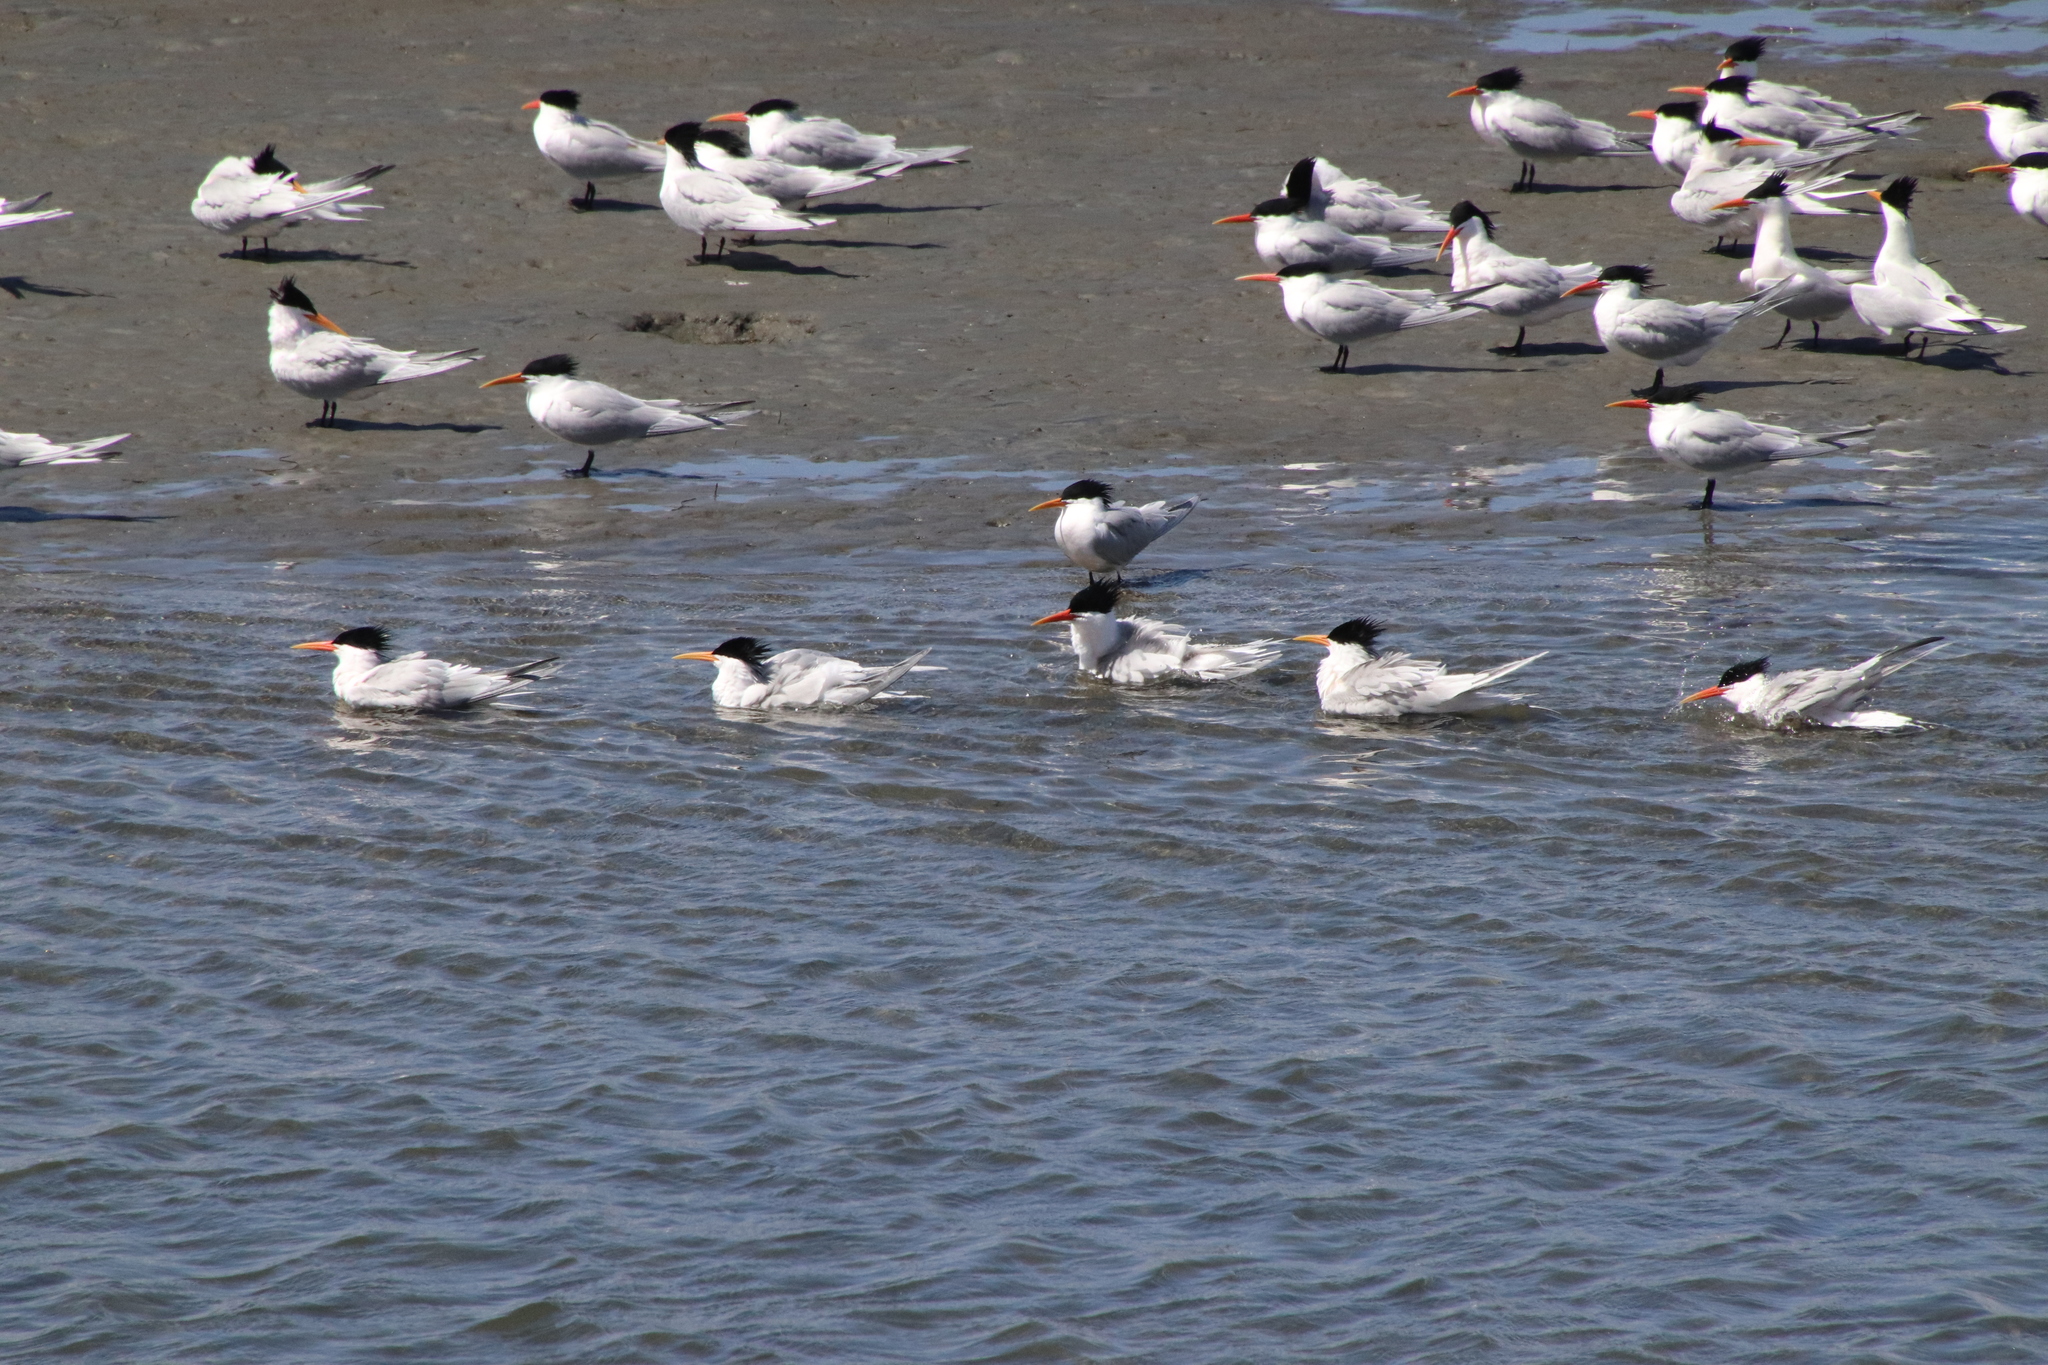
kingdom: Animalia
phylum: Chordata
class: Aves
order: Charadriiformes
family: Laridae
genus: Thalasseus
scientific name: Thalasseus elegans
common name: Elegant tern
